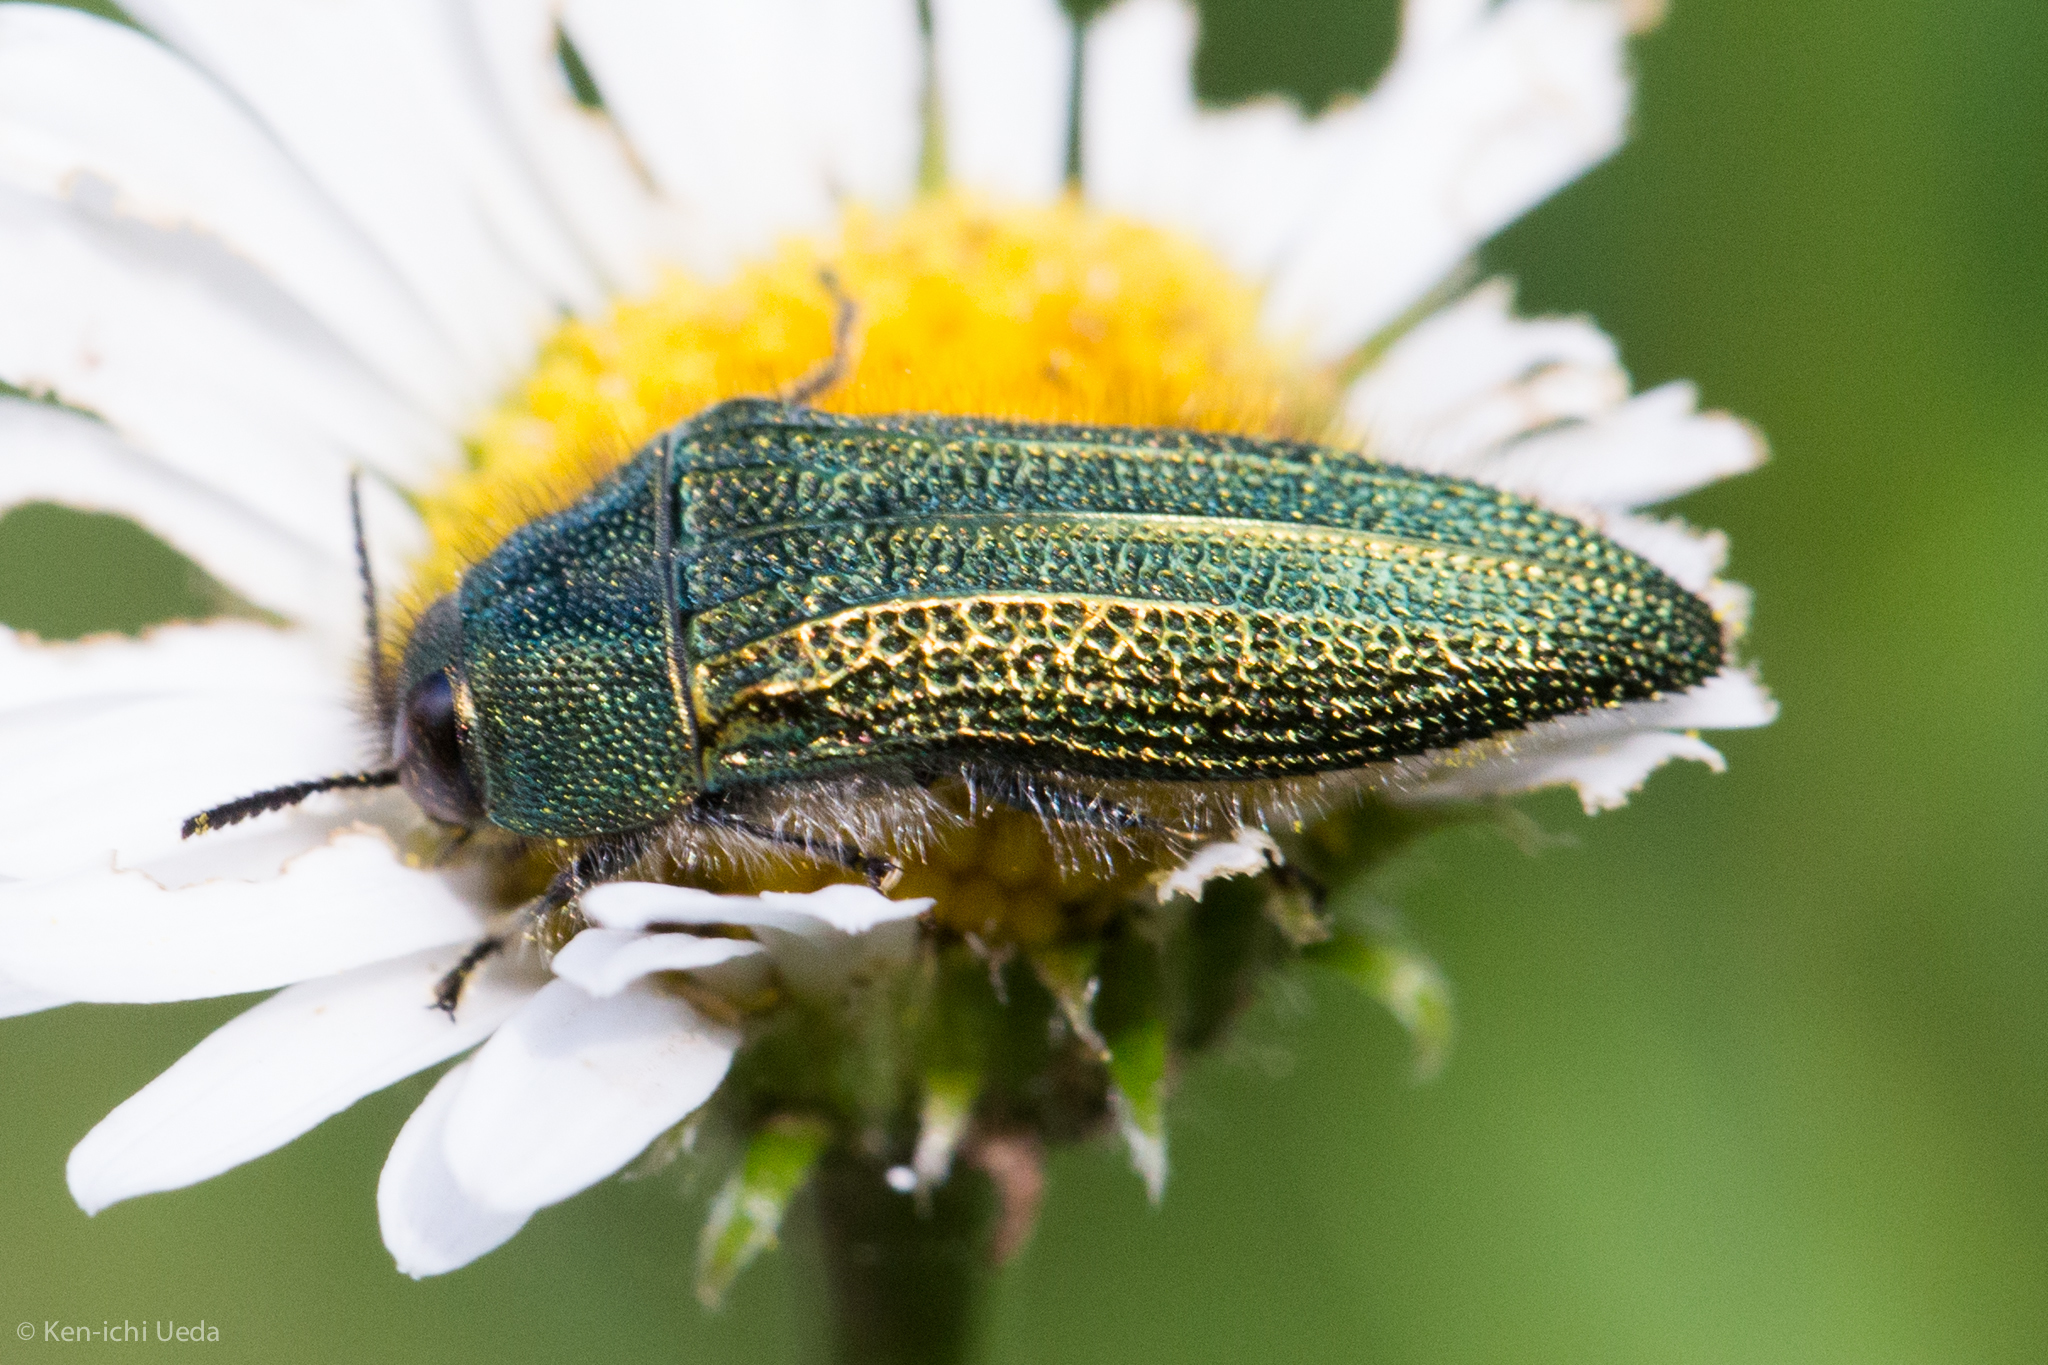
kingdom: Animalia
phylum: Arthropoda
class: Insecta
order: Coleoptera
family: Buprestidae
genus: Acmaeodera
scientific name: Acmaeodera resplendens
